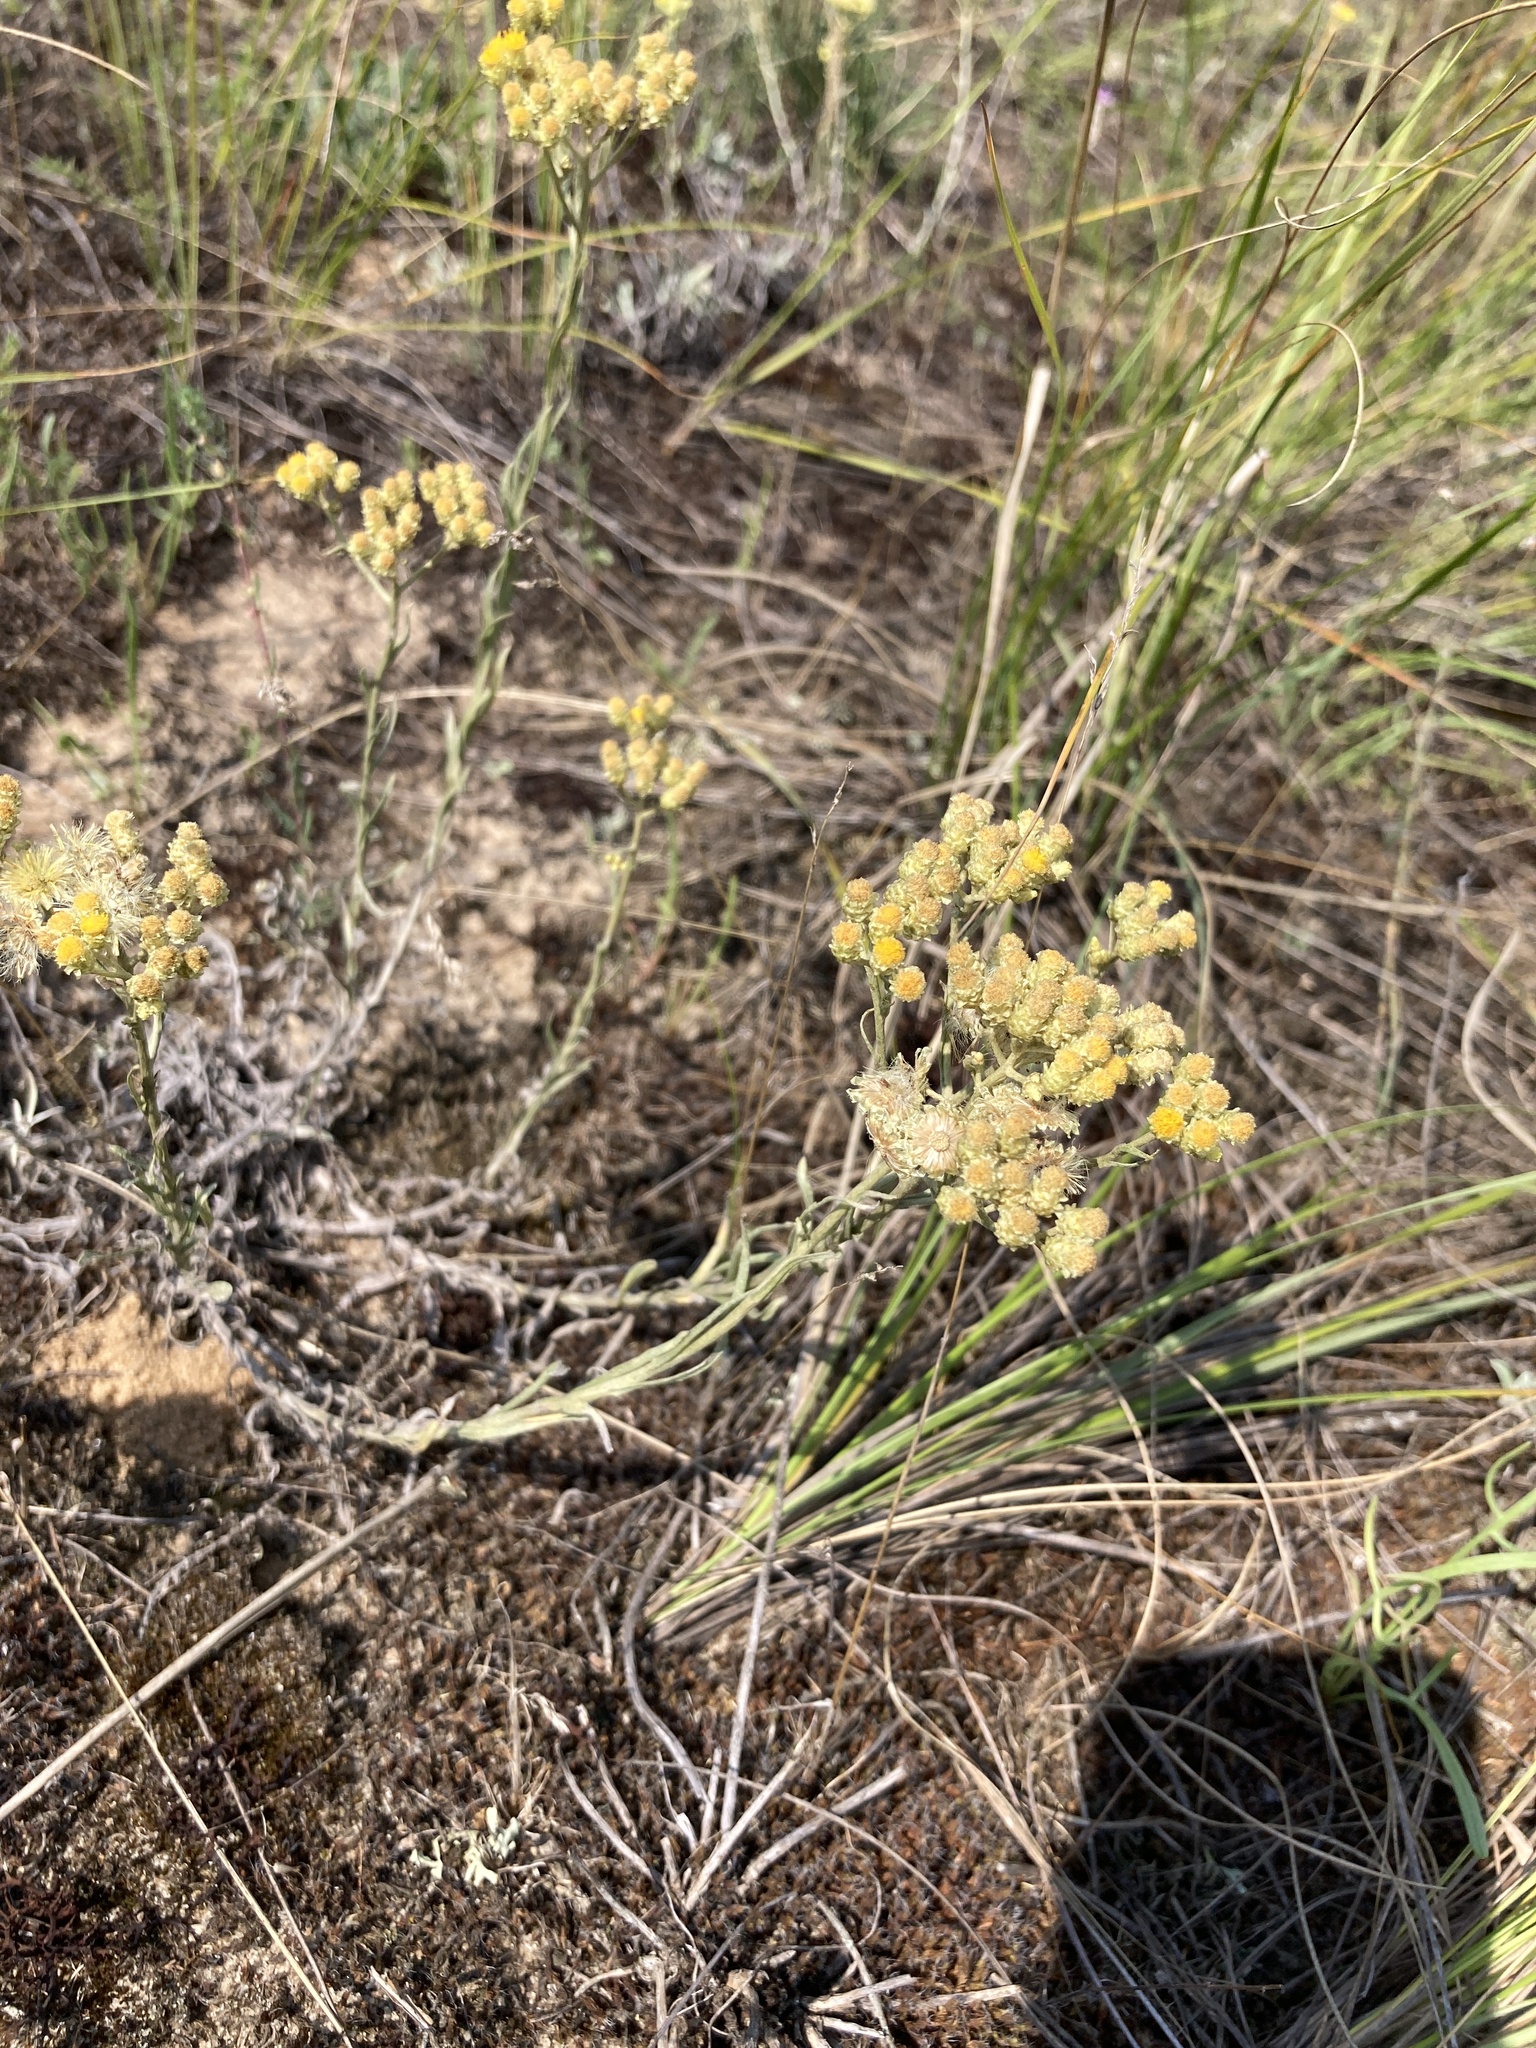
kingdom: Plantae
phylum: Tracheophyta
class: Magnoliopsida
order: Asterales
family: Asteraceae
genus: Helichrysum
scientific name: Helichrysum arenarium
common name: Strawflower
